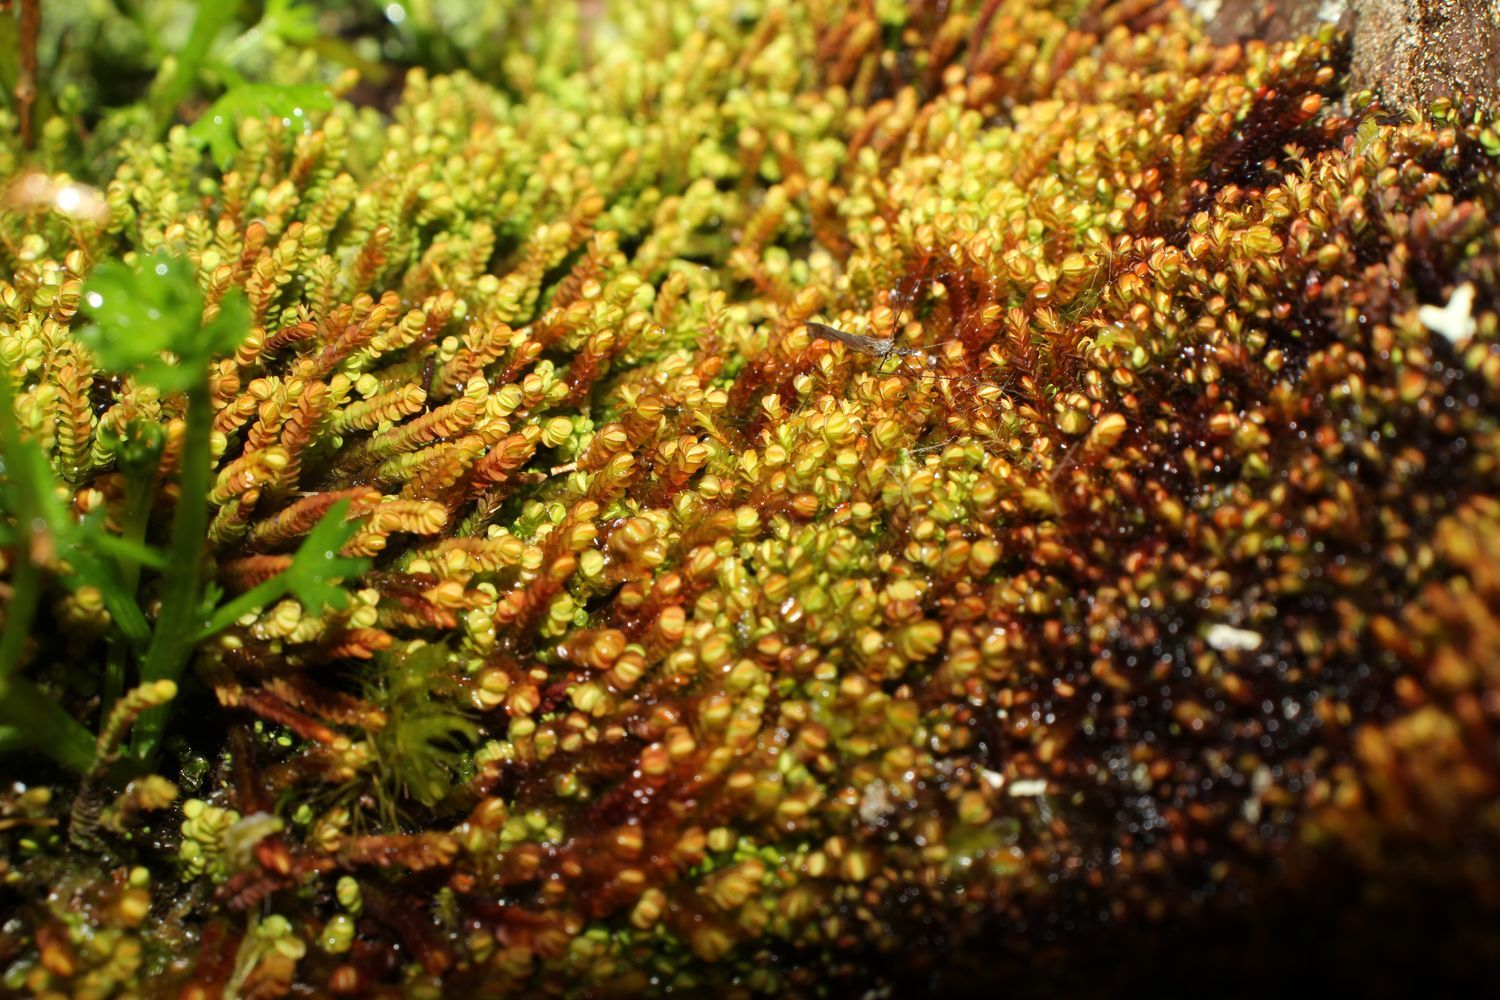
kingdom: Plantae
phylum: Marchantiophyta
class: Jungermanniopsida
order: Jungermanniales
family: Adelanthaceae
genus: Syzygiella
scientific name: Syzygiella colorata
